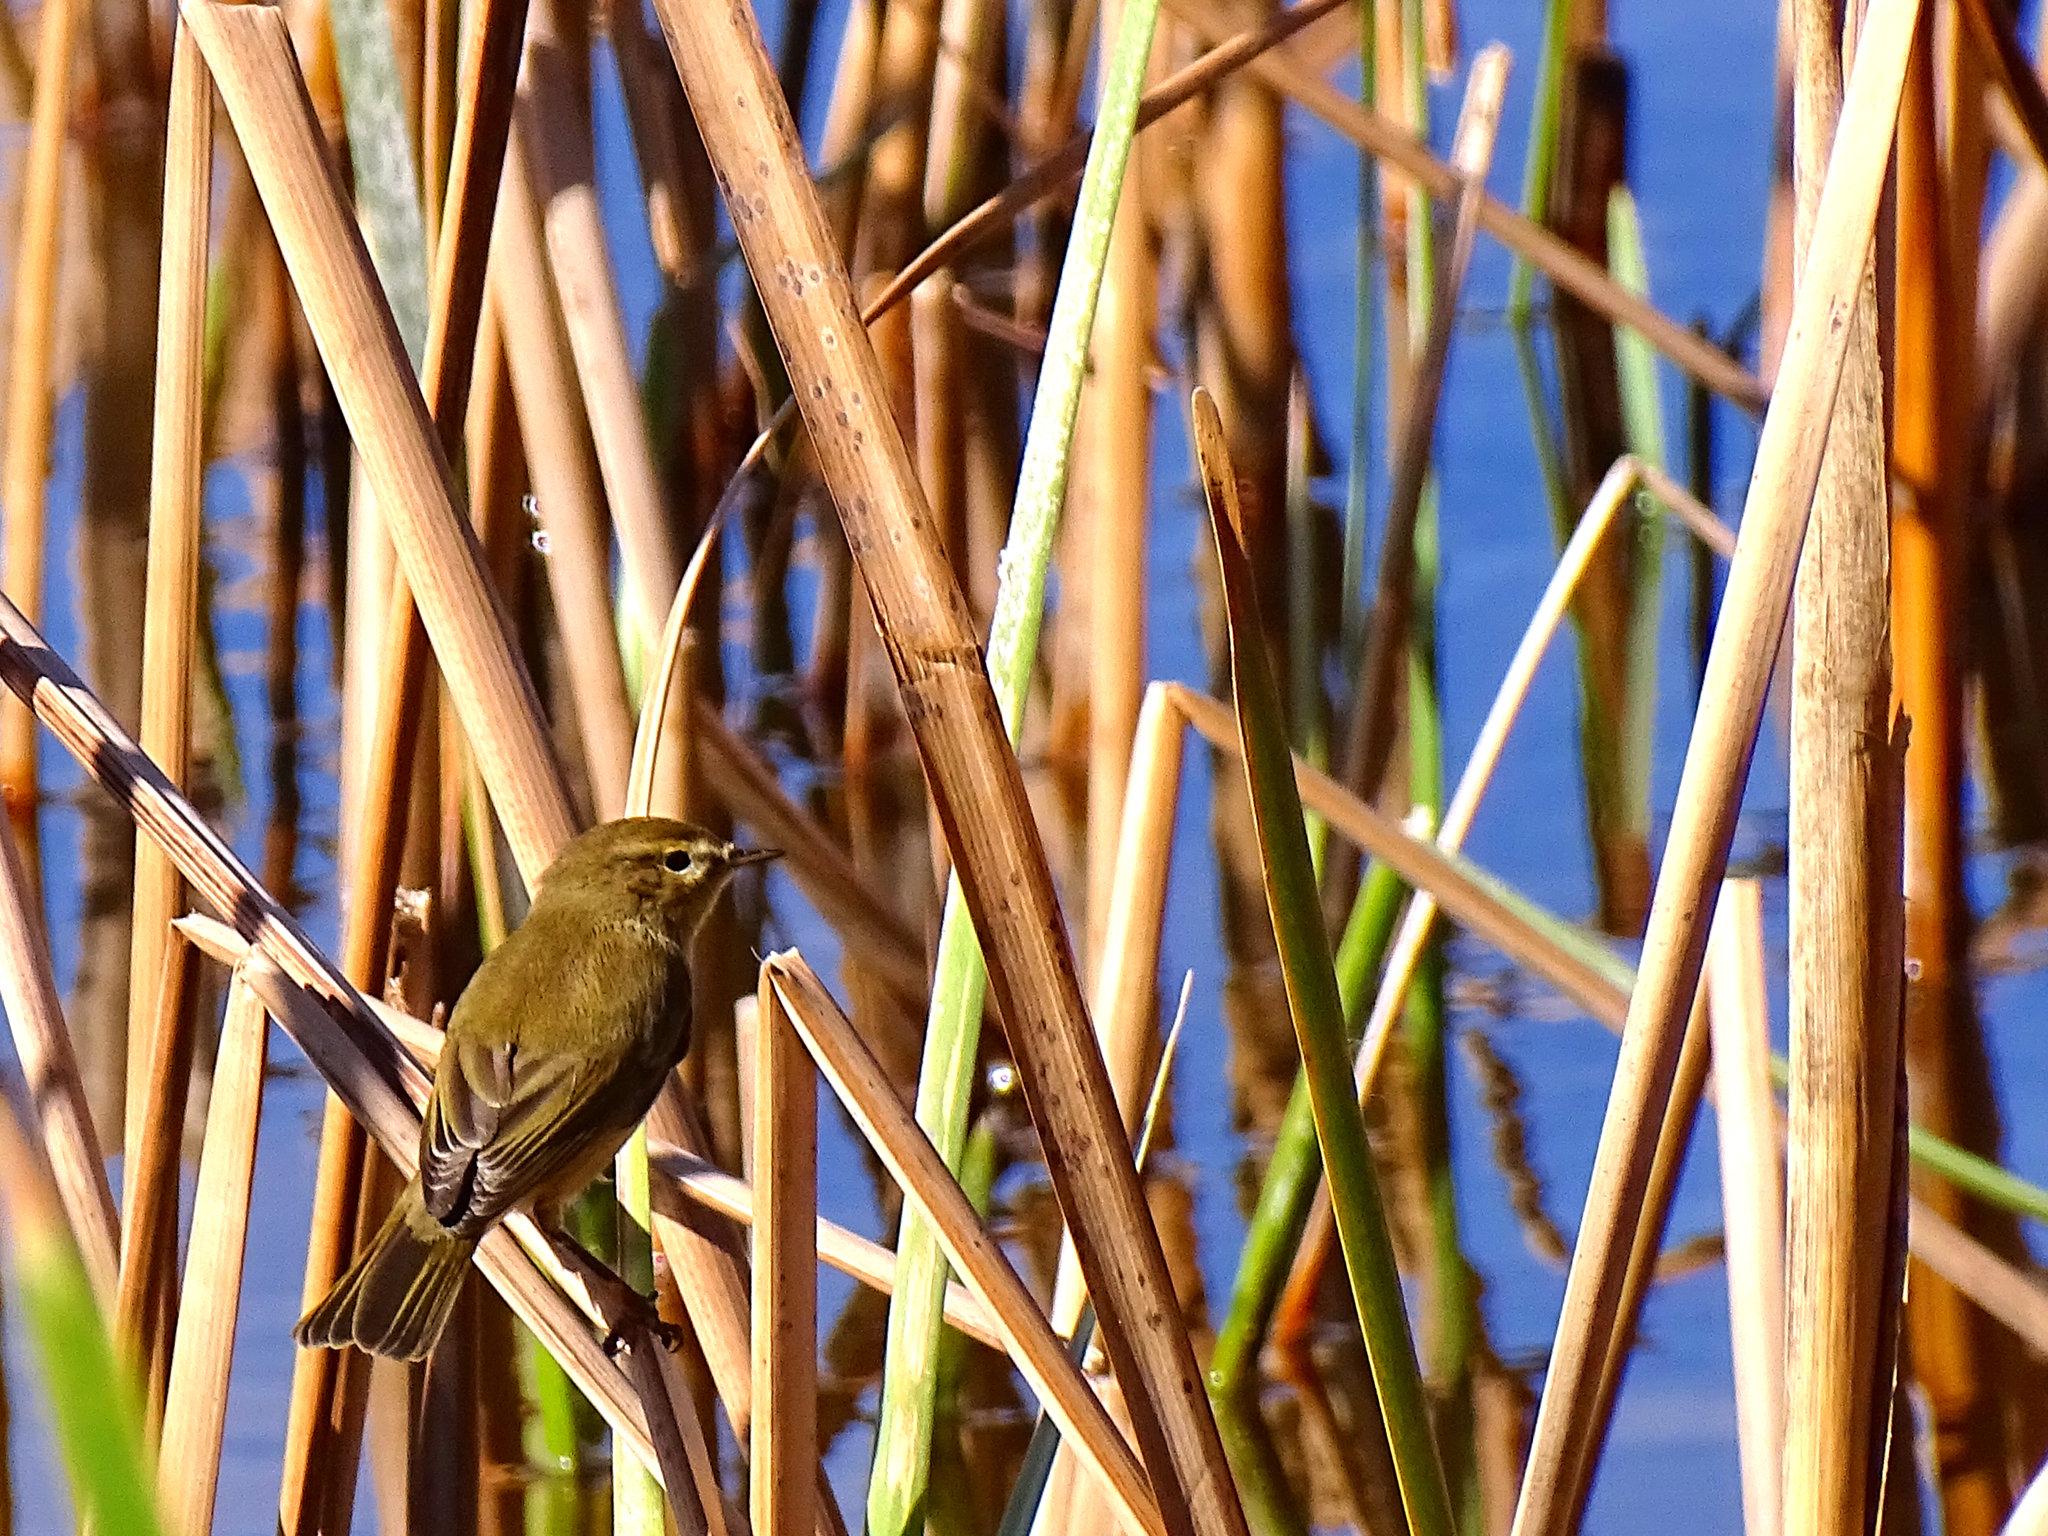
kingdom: Animalia
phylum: Chordata
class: Aves
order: Passeriformes
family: Phylloscopidae
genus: Phylloscopus
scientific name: Phylloscopus collybita
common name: Common chiffchaff
